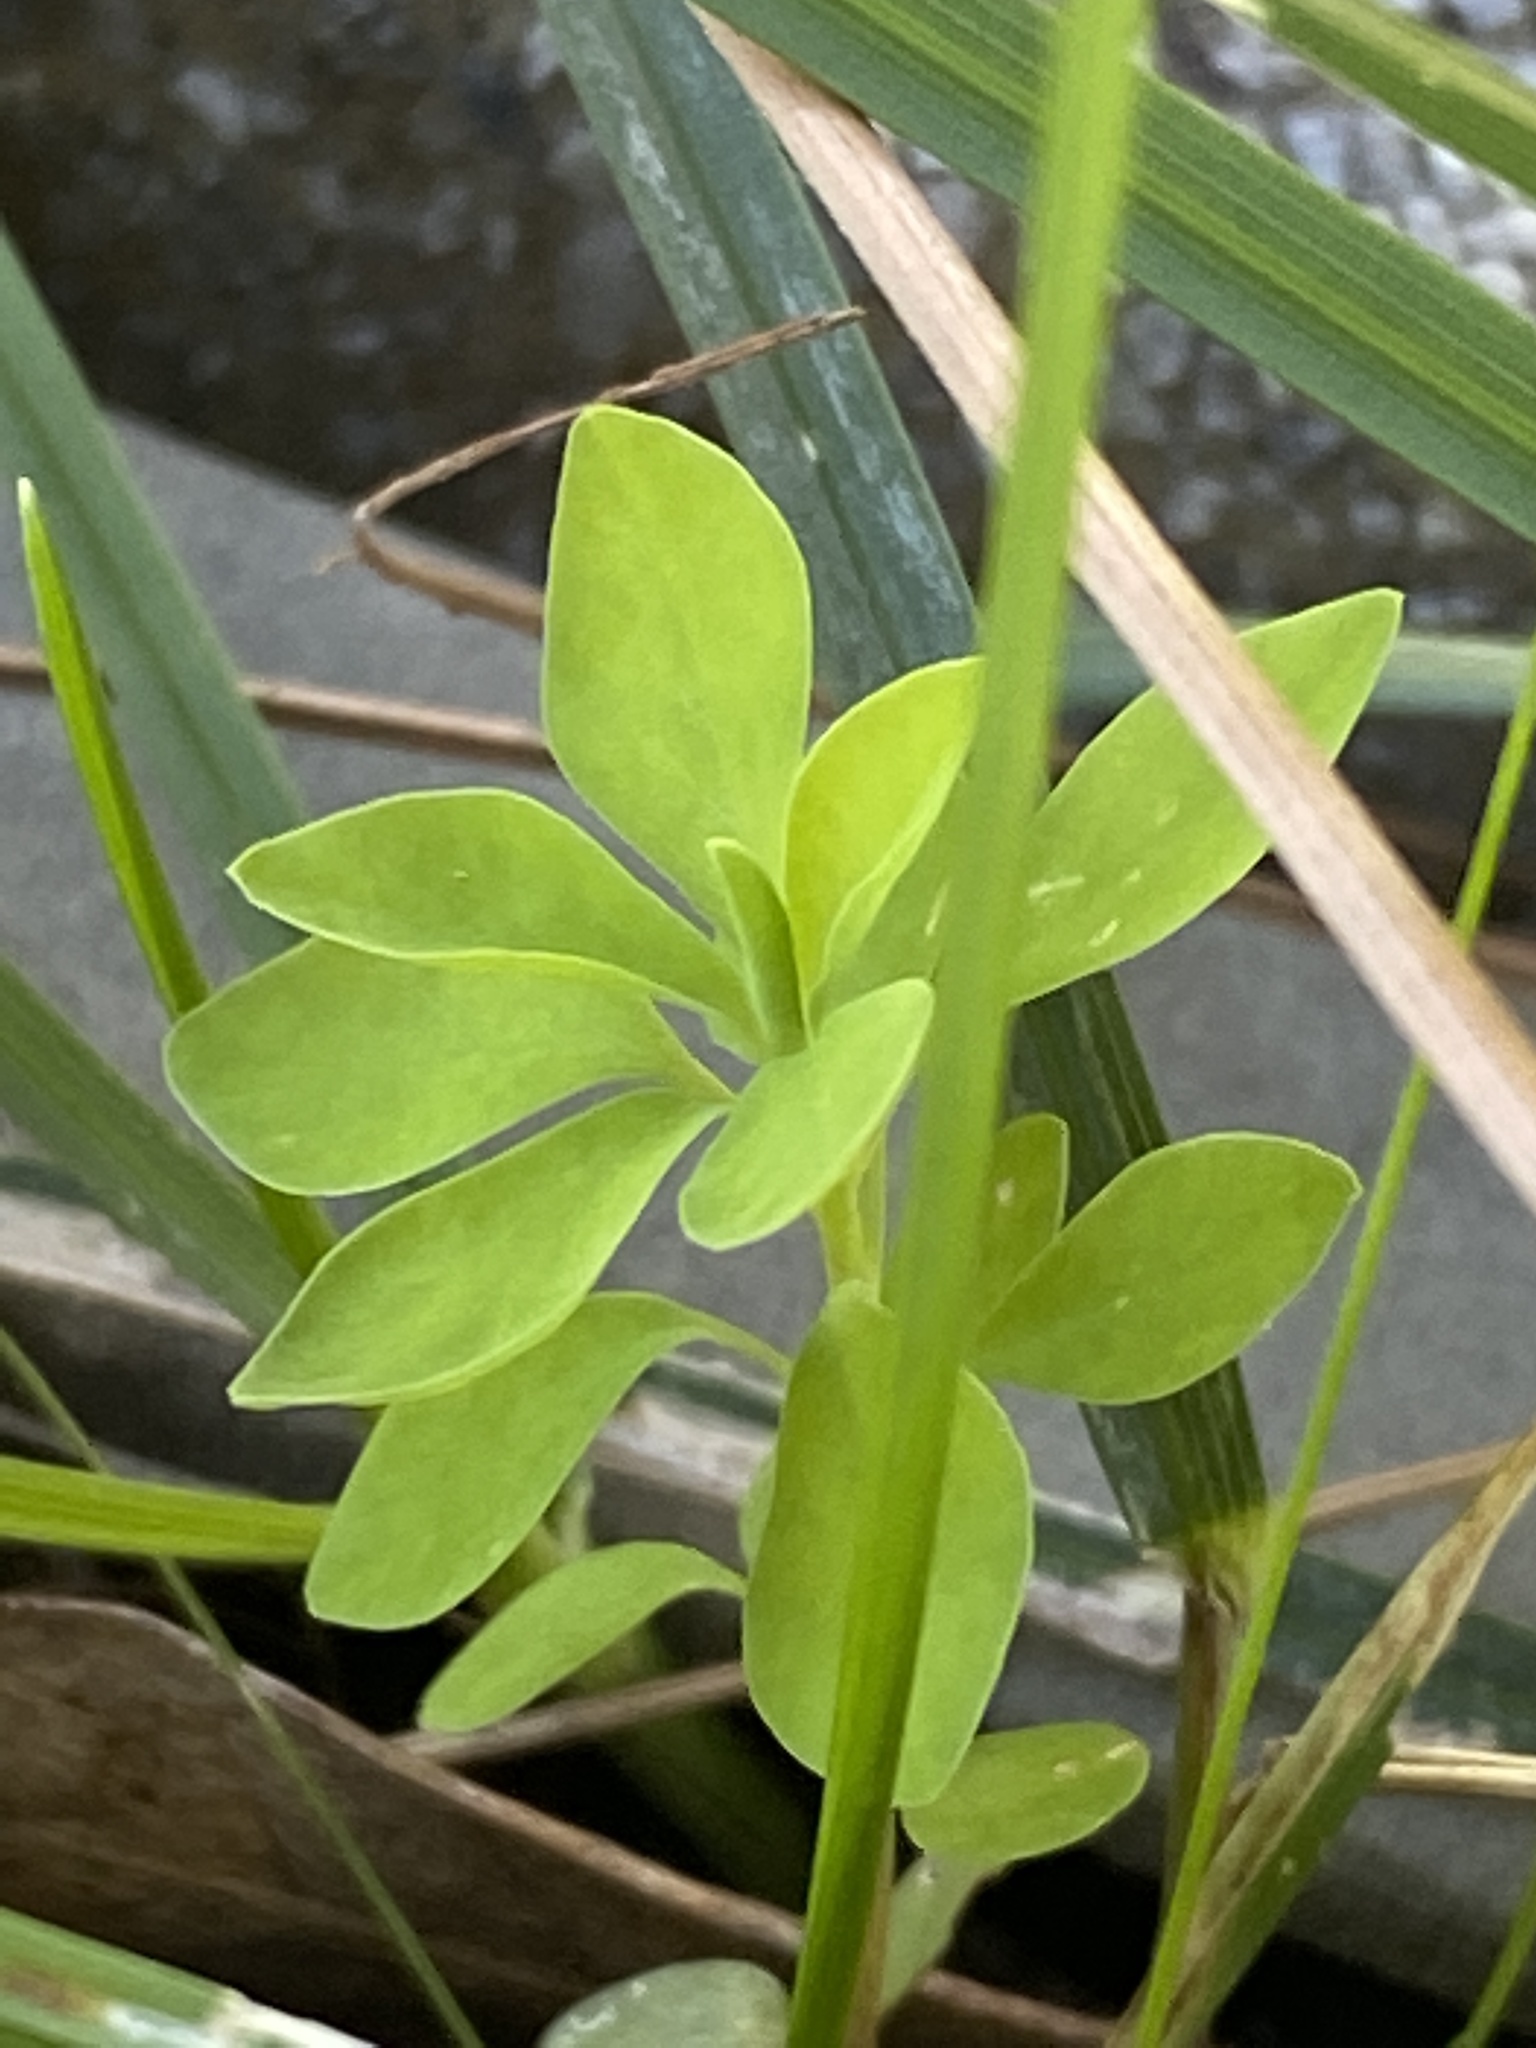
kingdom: Plantae
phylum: Tracheophyta
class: Magnoliopsida
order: Malpighiales
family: Euphorbiaceae
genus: Euphorbia
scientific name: Euphorbia peplus
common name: Petty spurge
